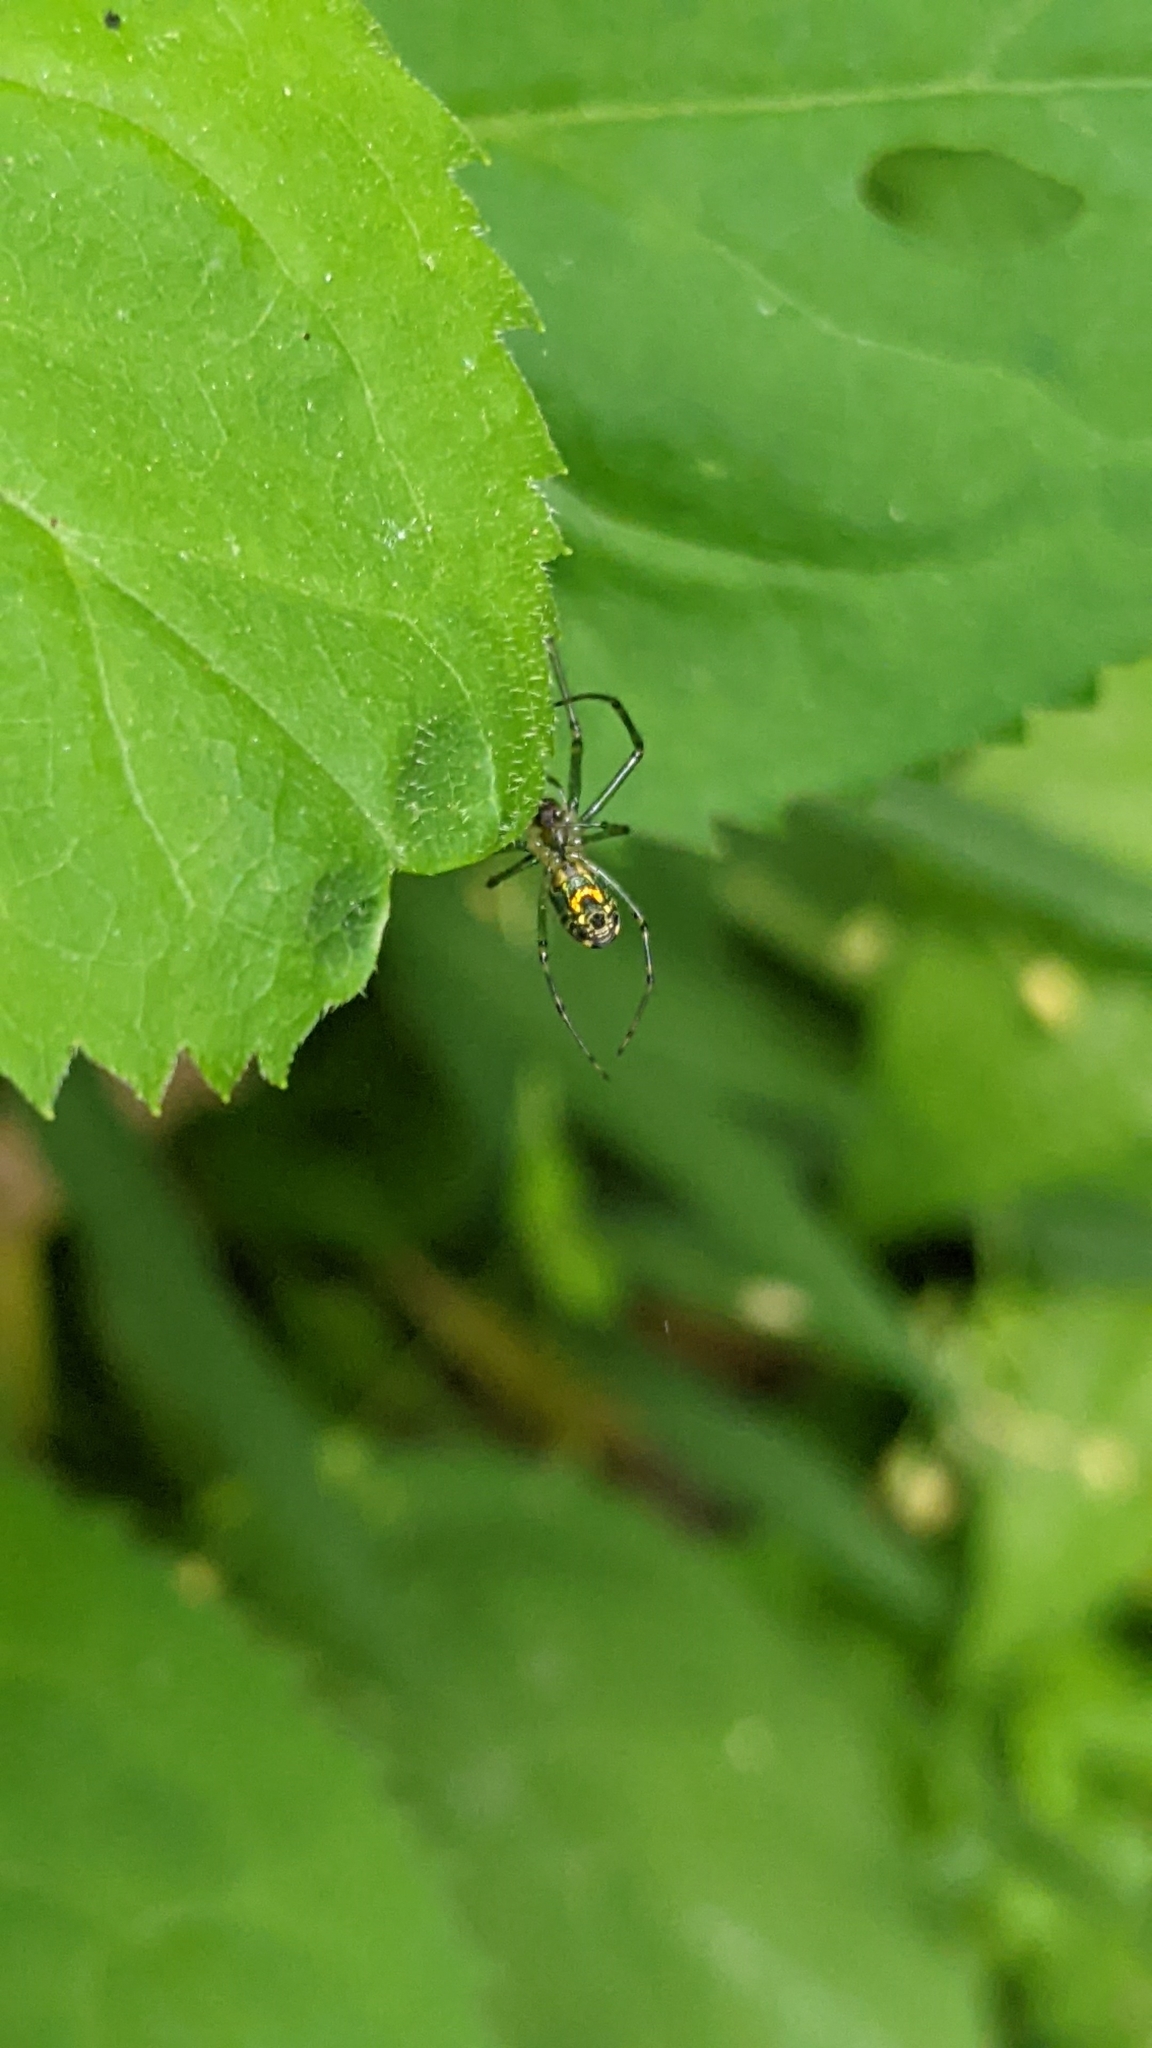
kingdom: Animalia
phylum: Arthropoda
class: Arachnida
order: Araneae
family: Tetragnathidae
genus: Leucauge
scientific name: Leucauge venusta
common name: Longjawed orb weavers
